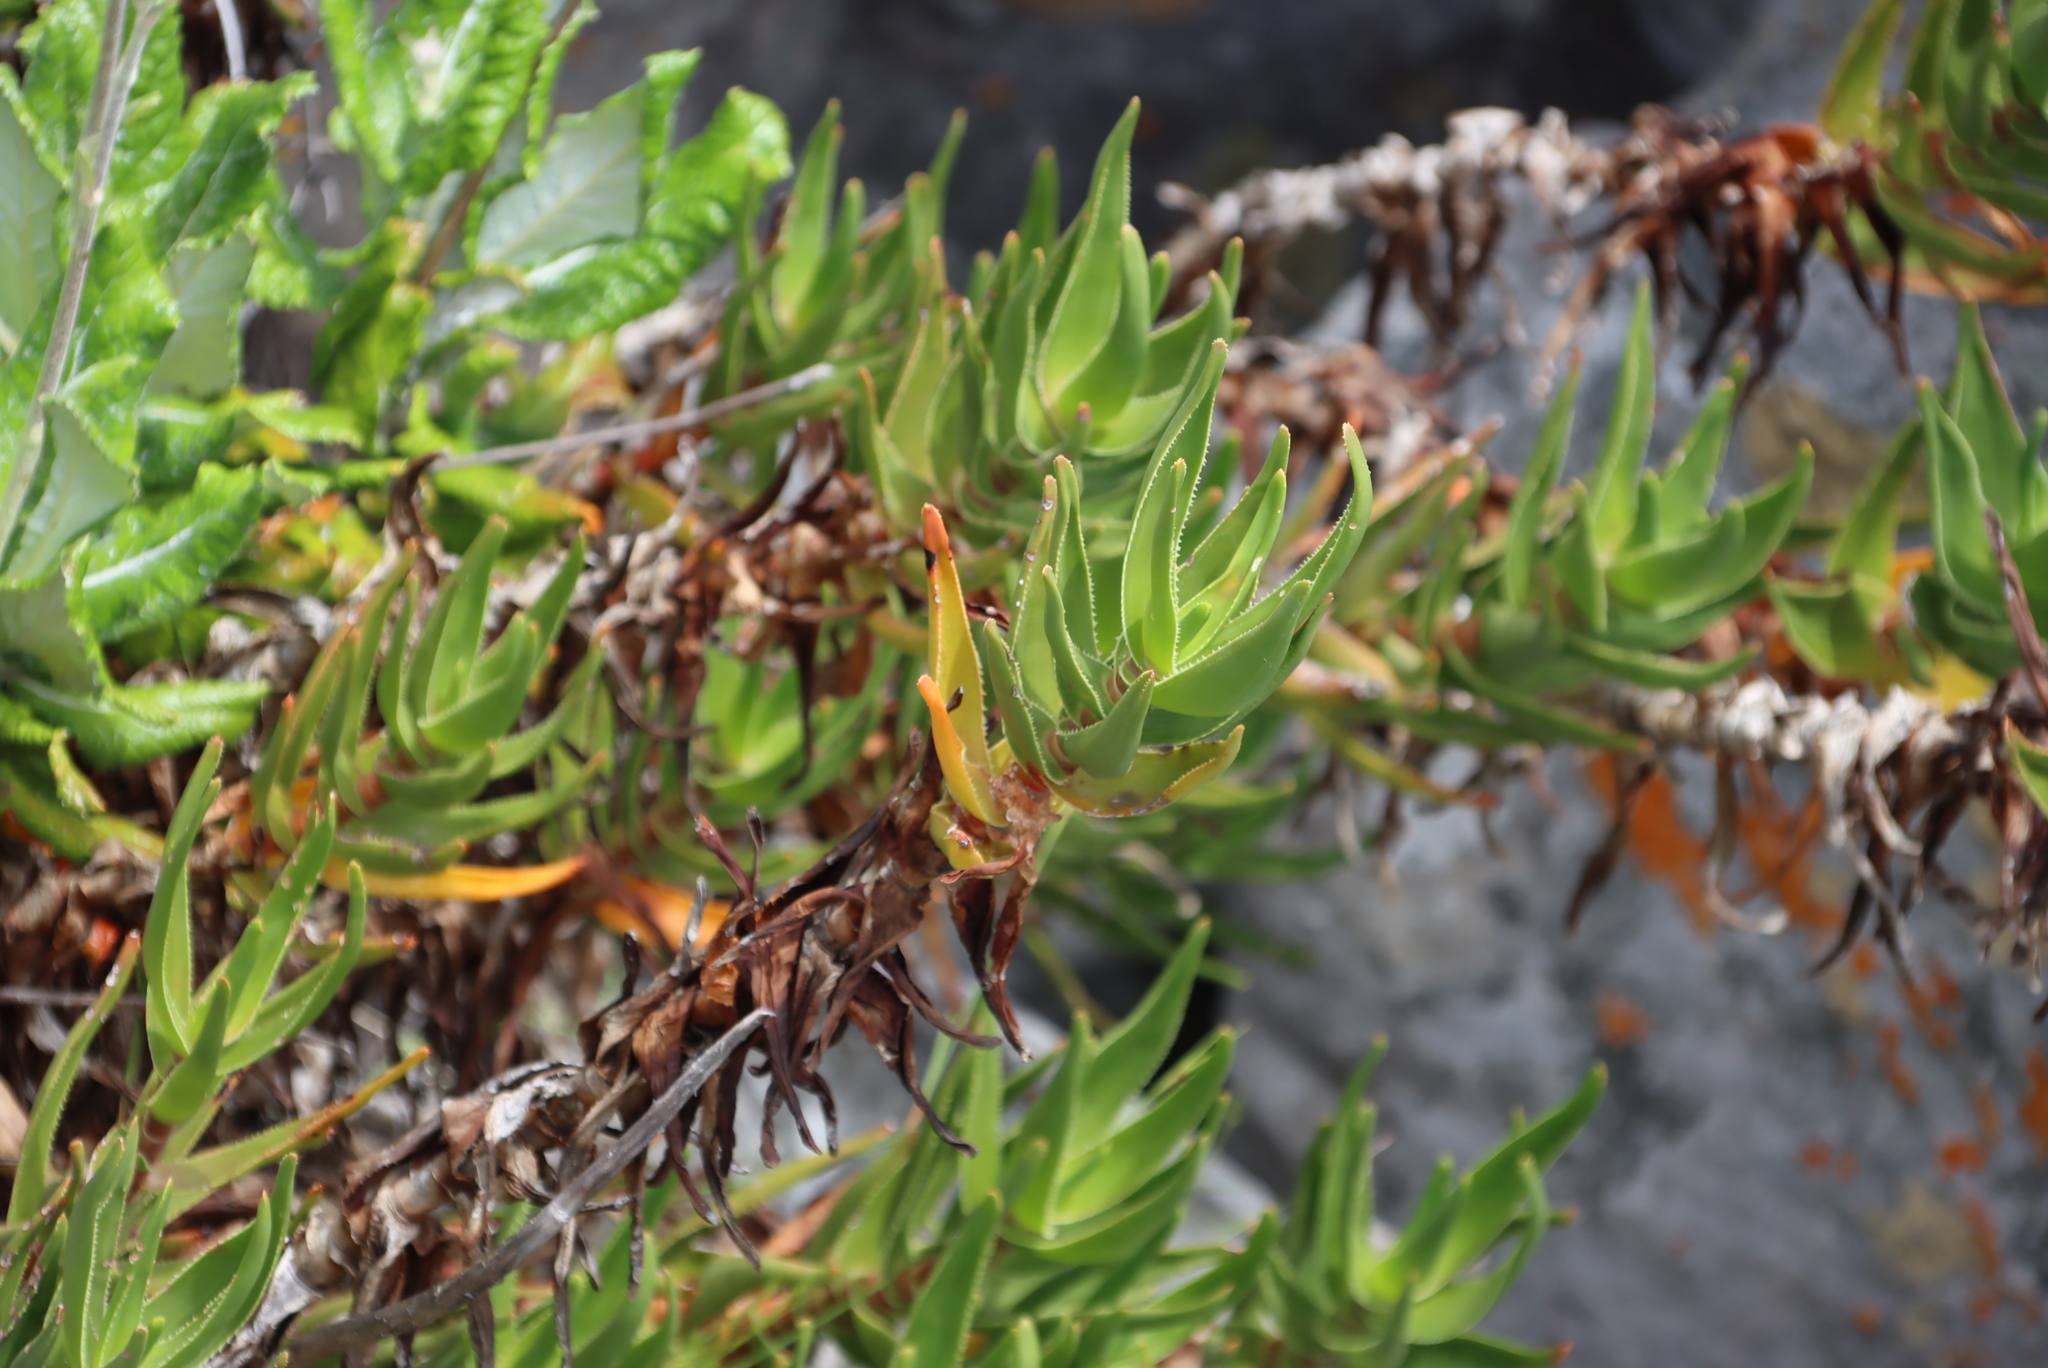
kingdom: Plantae
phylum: Tracheophyta
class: Liliopsida
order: Asparagales
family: Asphodelaceae
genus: Aloiampelos
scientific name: Aloiampelos commixta
